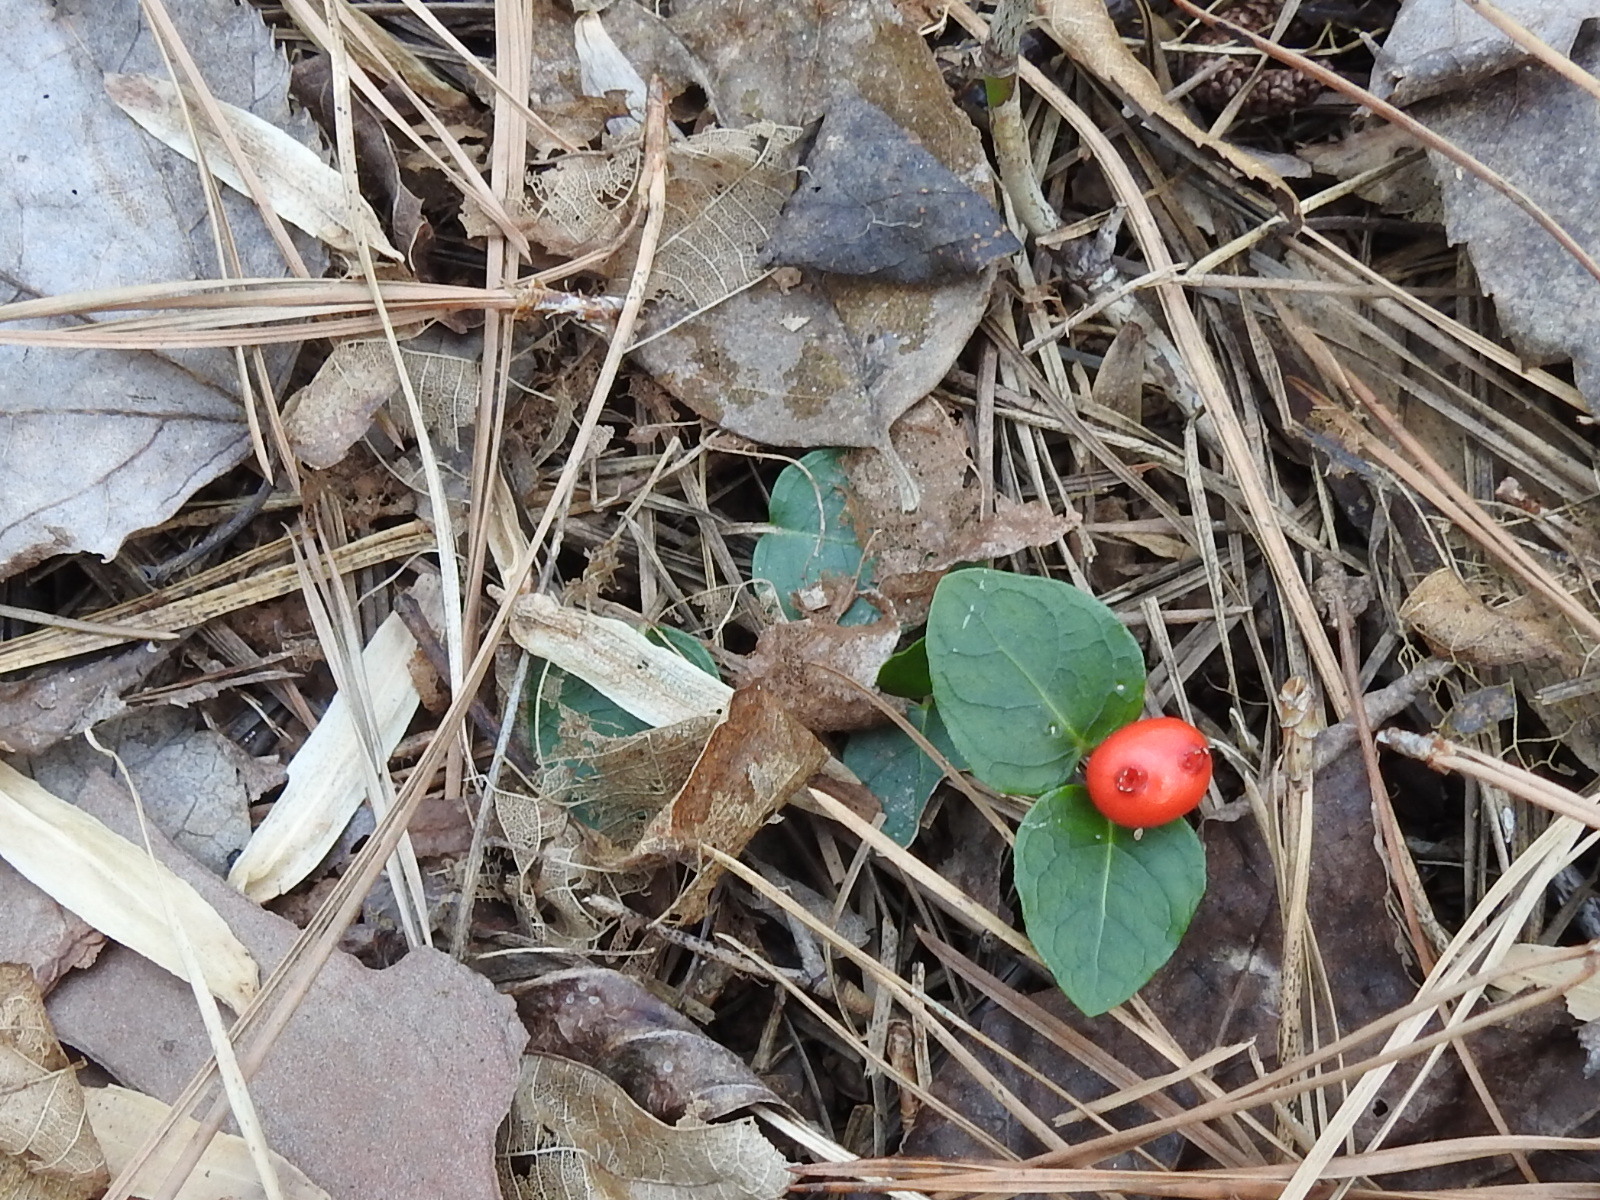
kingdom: Plantae
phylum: Tracheophyta
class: Magnoliopsida
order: Gentianales
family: Rubiaceae
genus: Mitchella
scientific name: Mitchella repens
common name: Partridge-berry
